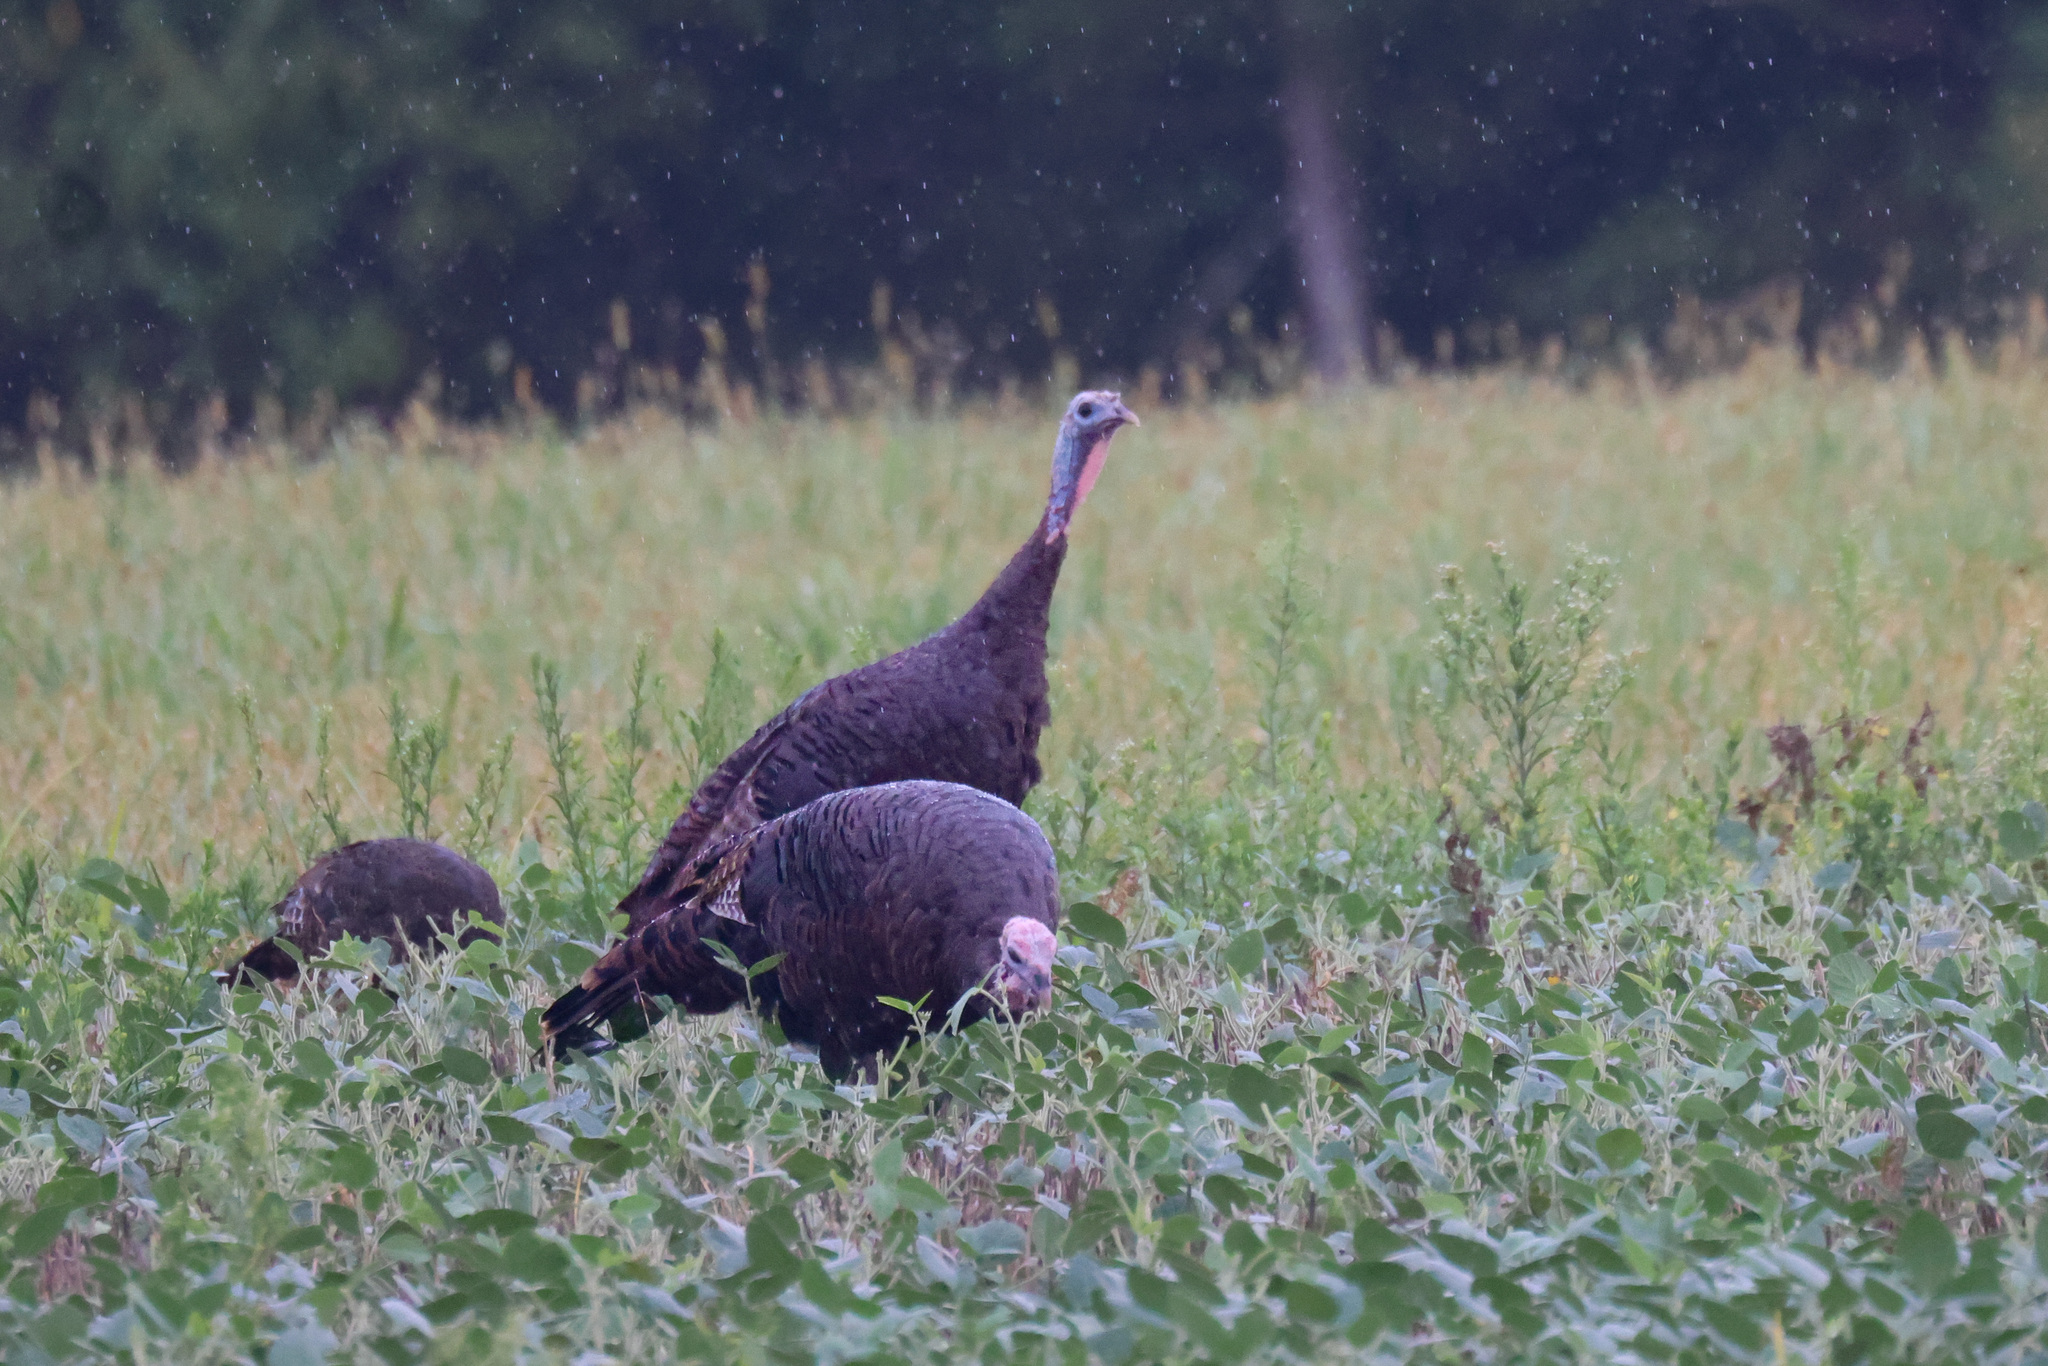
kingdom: Animalia
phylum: Chordata
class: Aves
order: Galliformes
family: Phasianidae
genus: Meleagris
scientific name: Meleagris gallopavo
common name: Wild turkey
